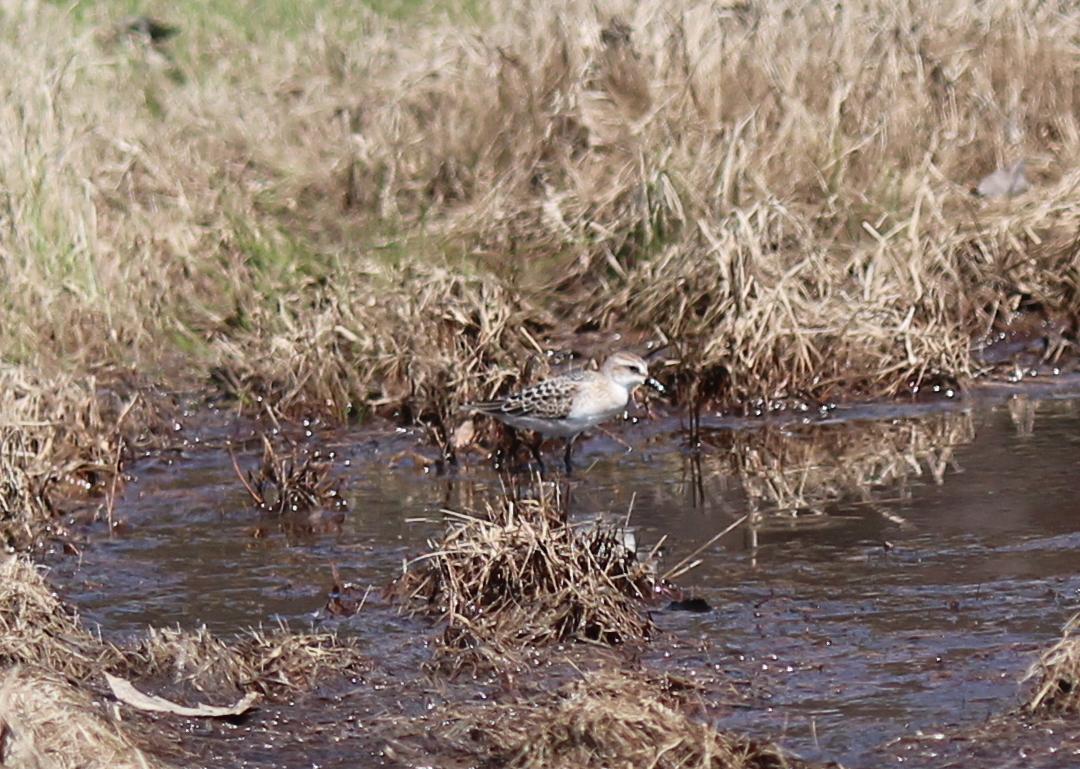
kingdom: Animalia
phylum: Chordata
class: Aves
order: Charadriiformes
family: Scolopacidae
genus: Calidris
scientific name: Calidris pusilla
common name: Semipalmated sandpiper
